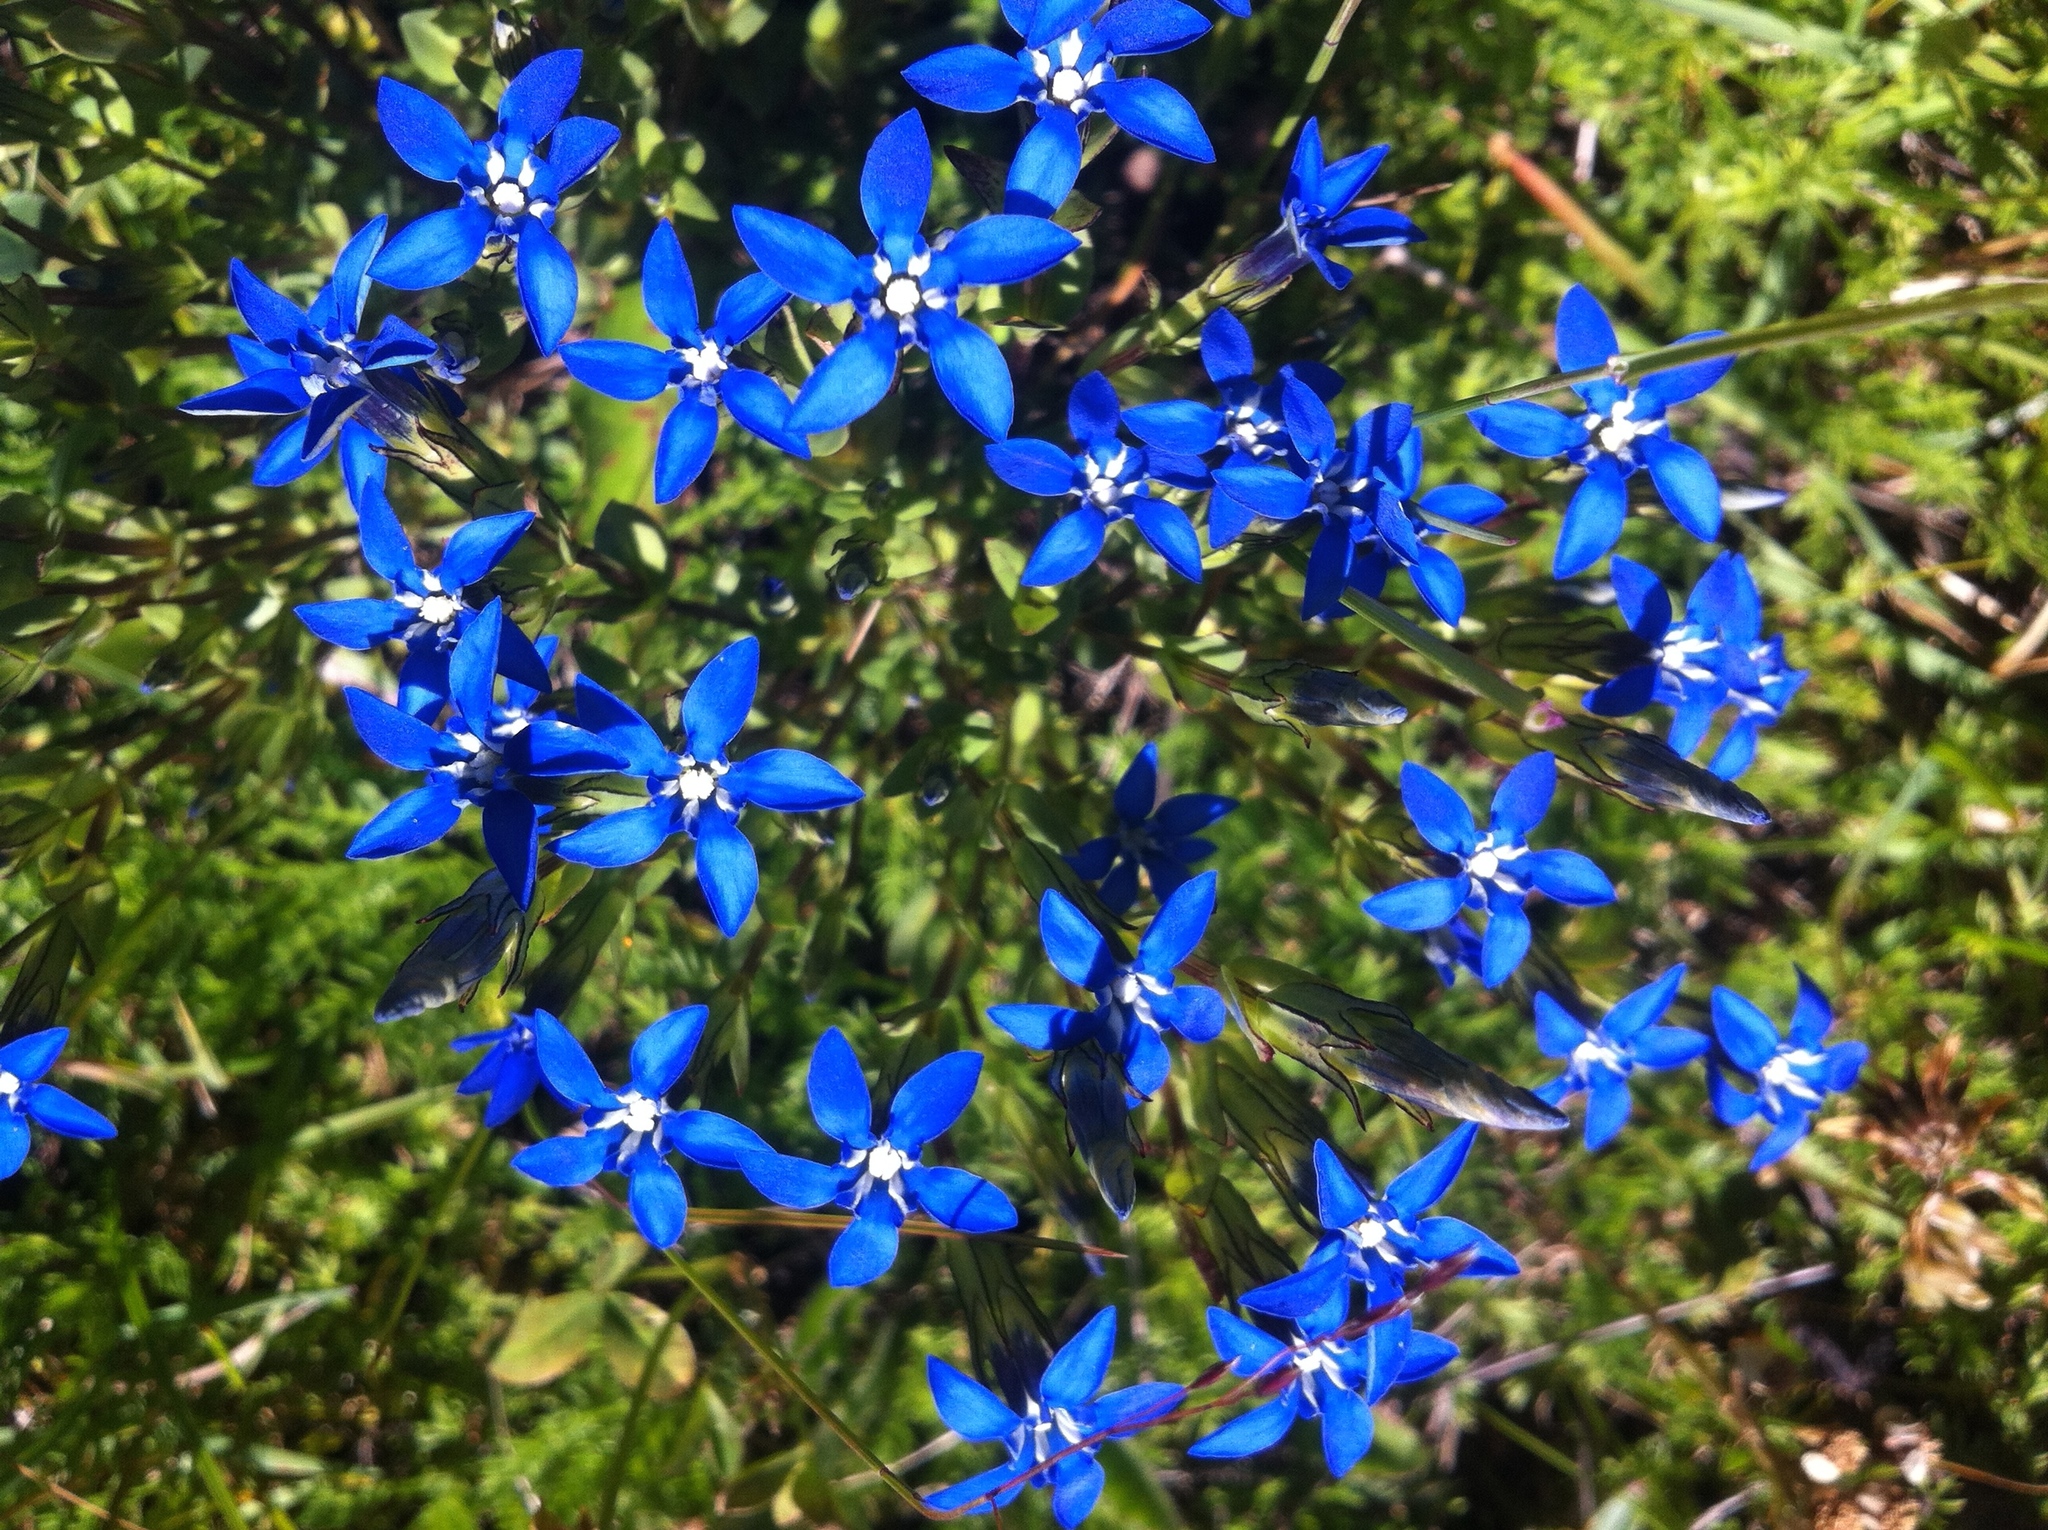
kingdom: Plantae
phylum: Tracheophyta
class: Magnoliopsida
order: Gentianales
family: Gentianaceae
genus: Gentiana
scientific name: Gentiana nivalis
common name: Alpine gentian
